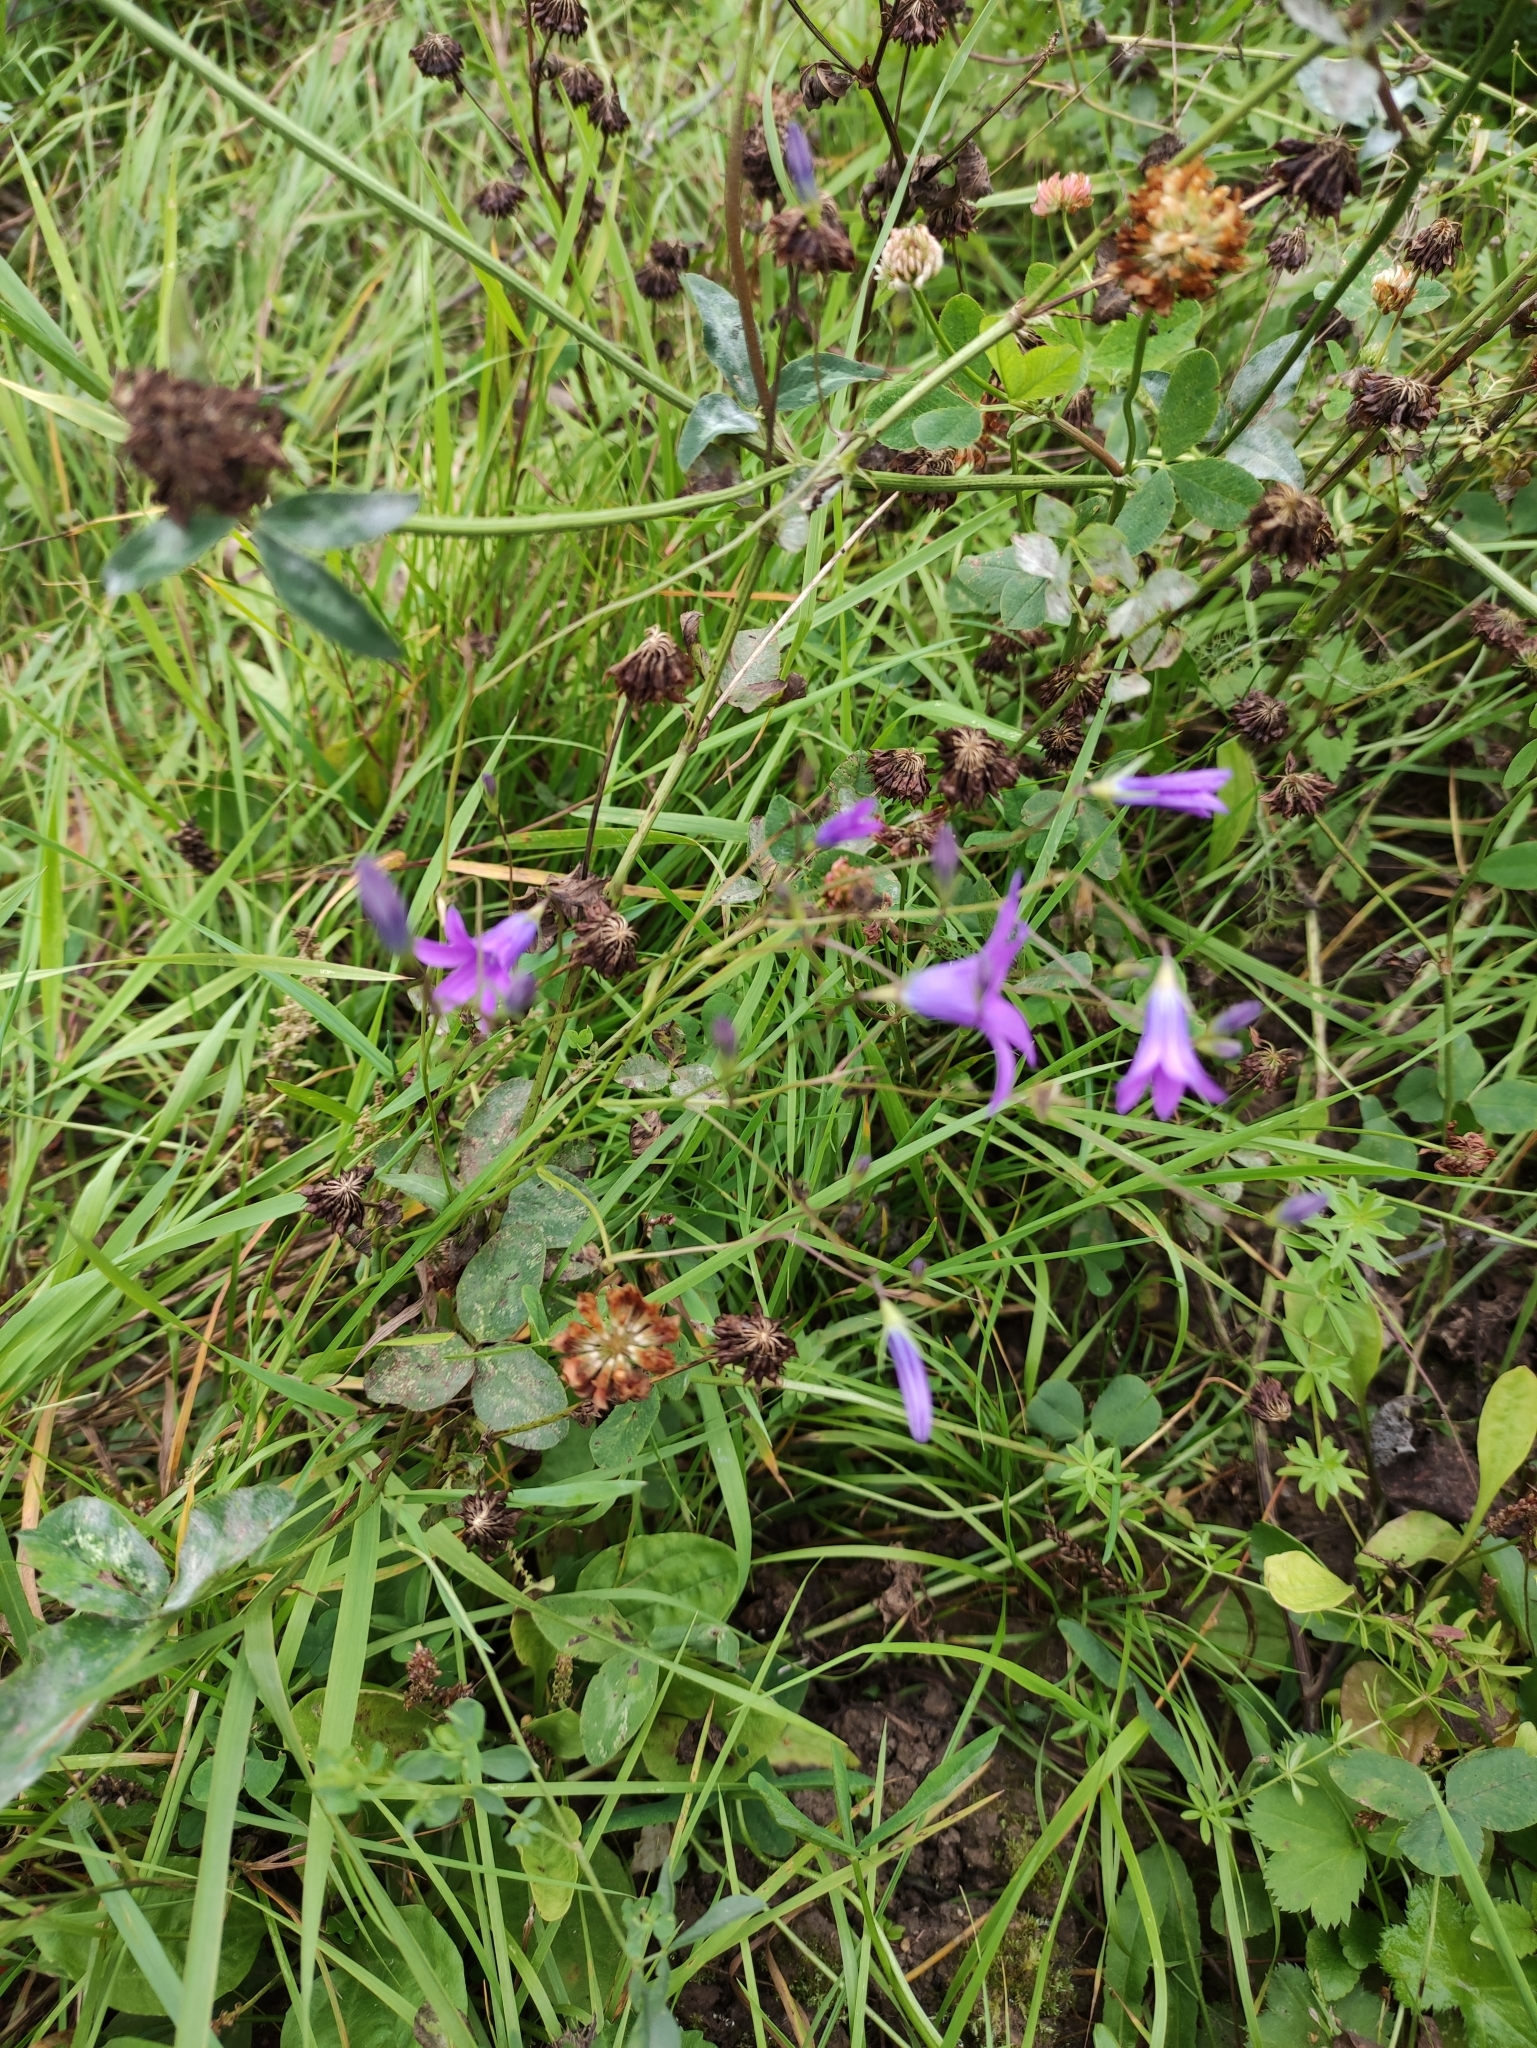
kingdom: Plantae
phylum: Tracheophyta
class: Magnoliopsida
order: Asterales
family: Campanulaceae
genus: Campanula
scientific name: Campanula patula
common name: Spreading bellflower
